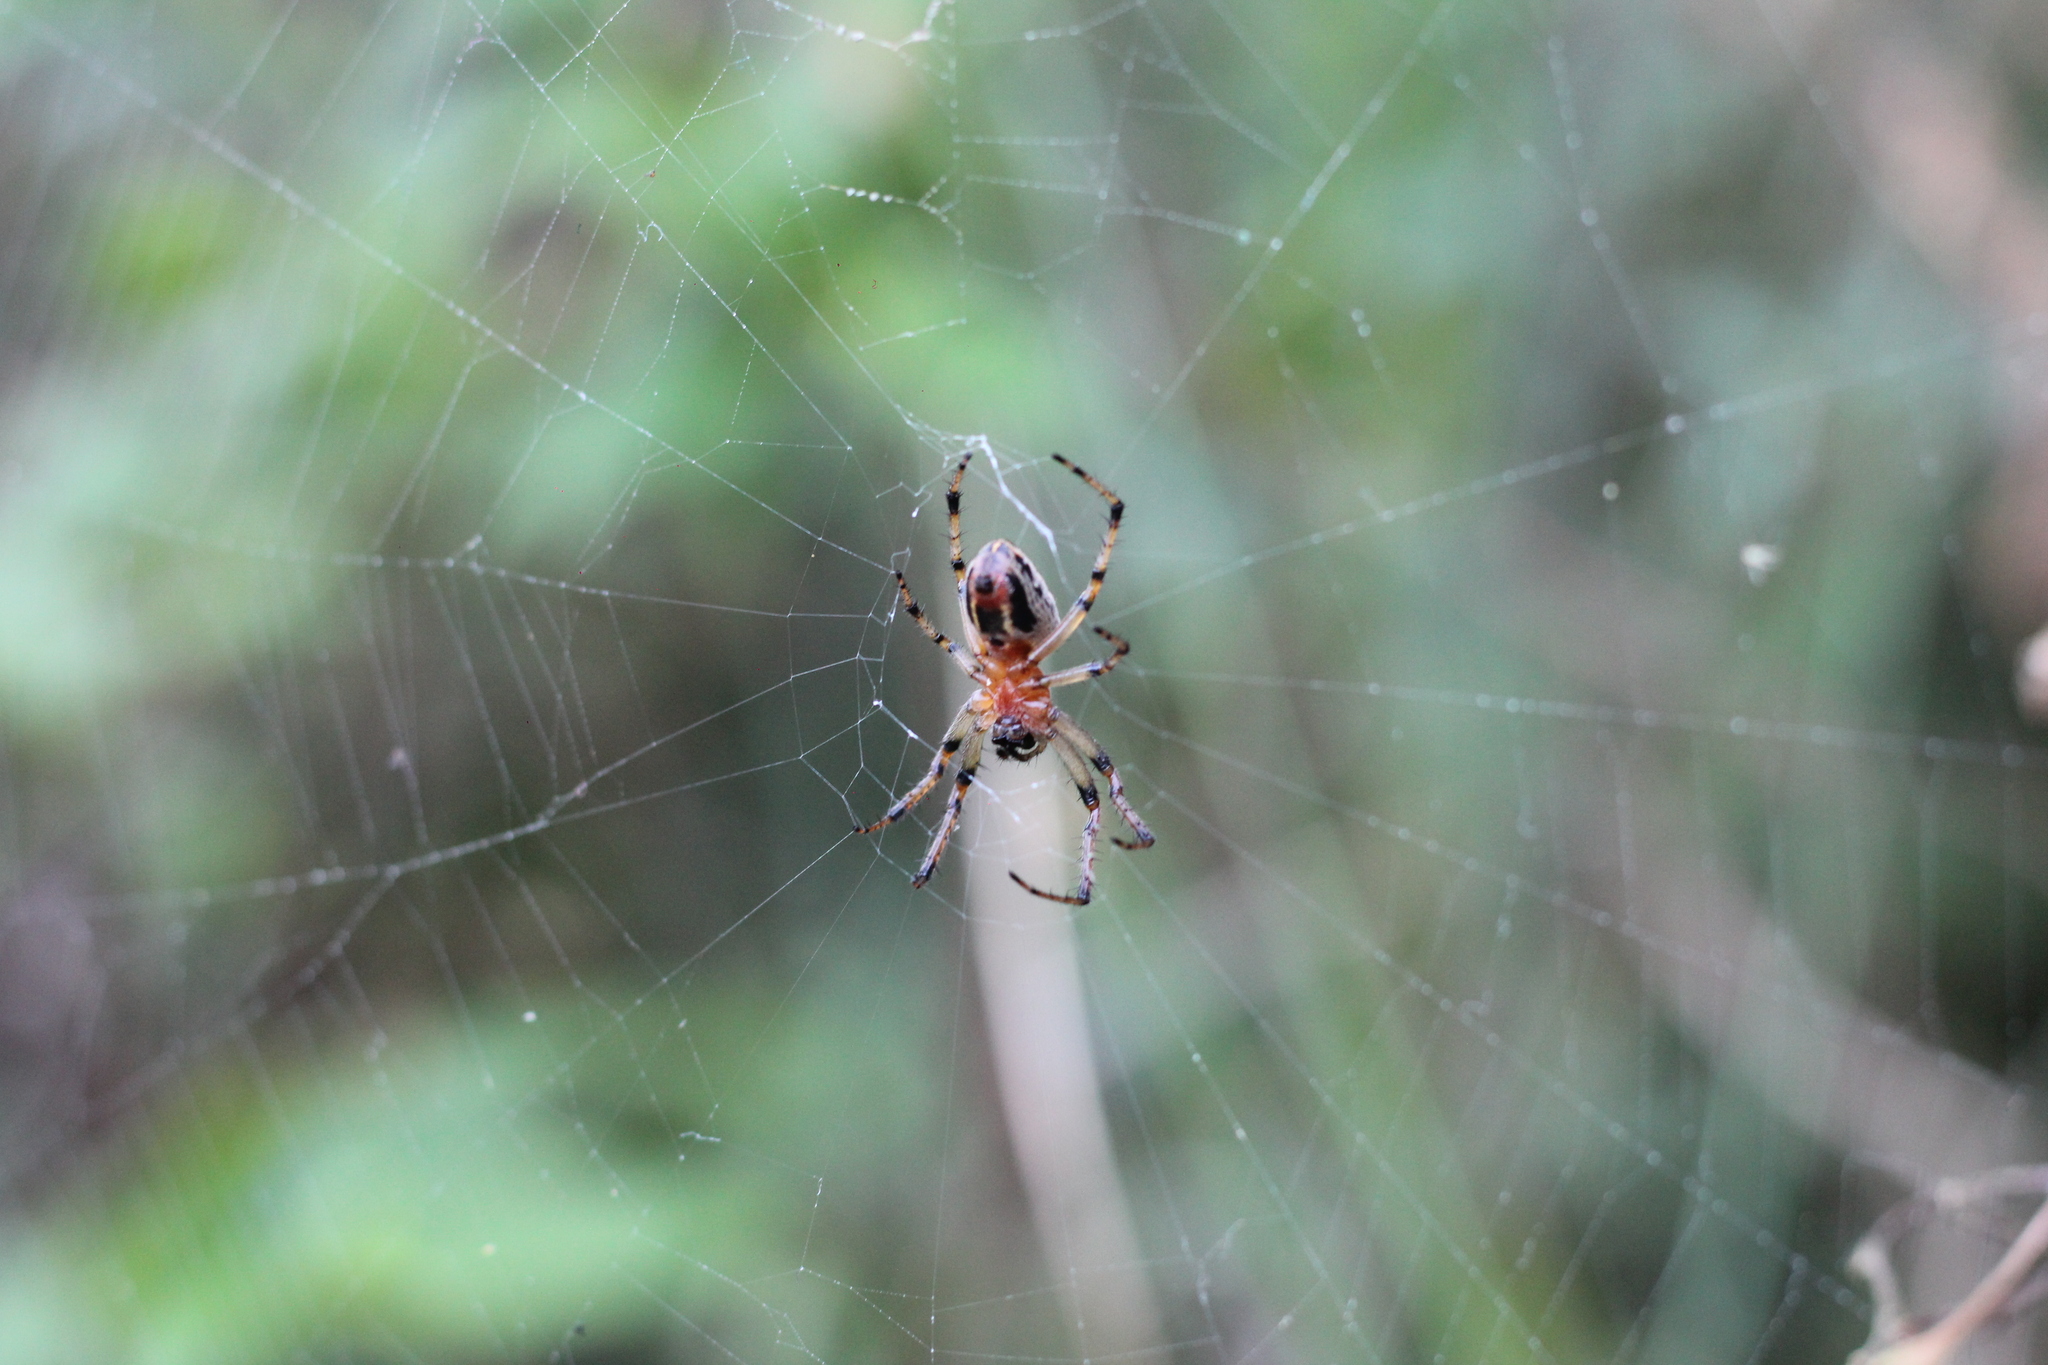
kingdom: Animalia
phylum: Arthropoda
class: Arachnida
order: Araneae
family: Araneidae
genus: Alpaida
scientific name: Alpaida veniliae
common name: Orb weavers
